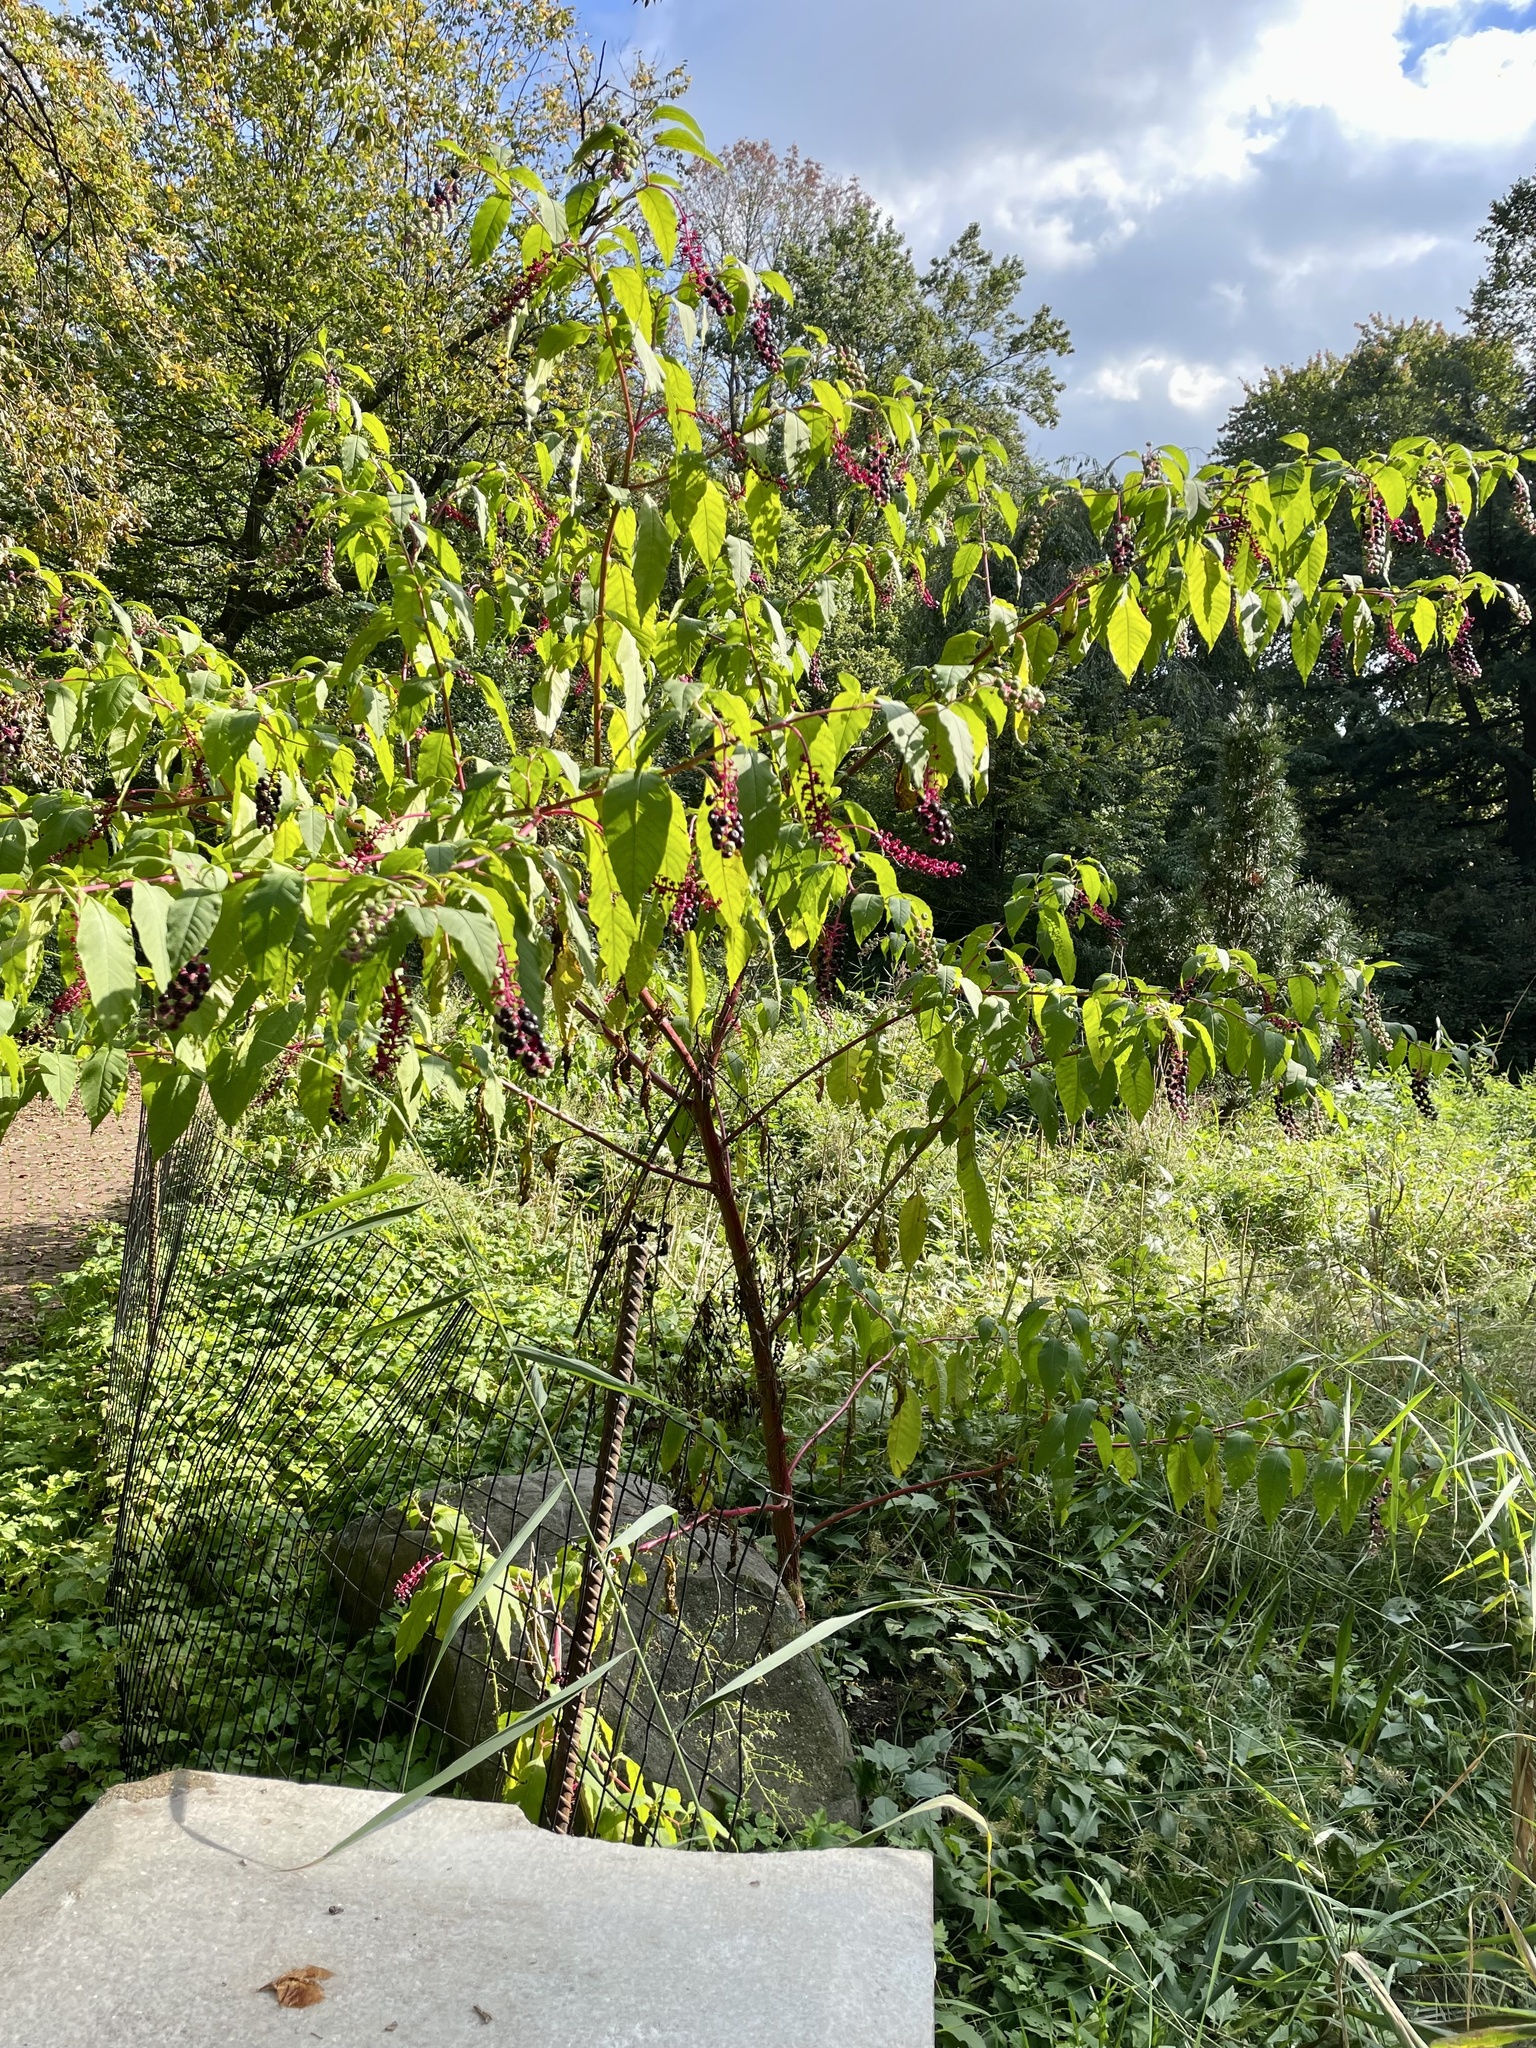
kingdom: Plantae
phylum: Tracheophyta
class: Magnoliopsida
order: Caryophyllales
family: Phytolaccaceae
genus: Phytolacca
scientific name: Phytolacca americana
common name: American pokeweed
